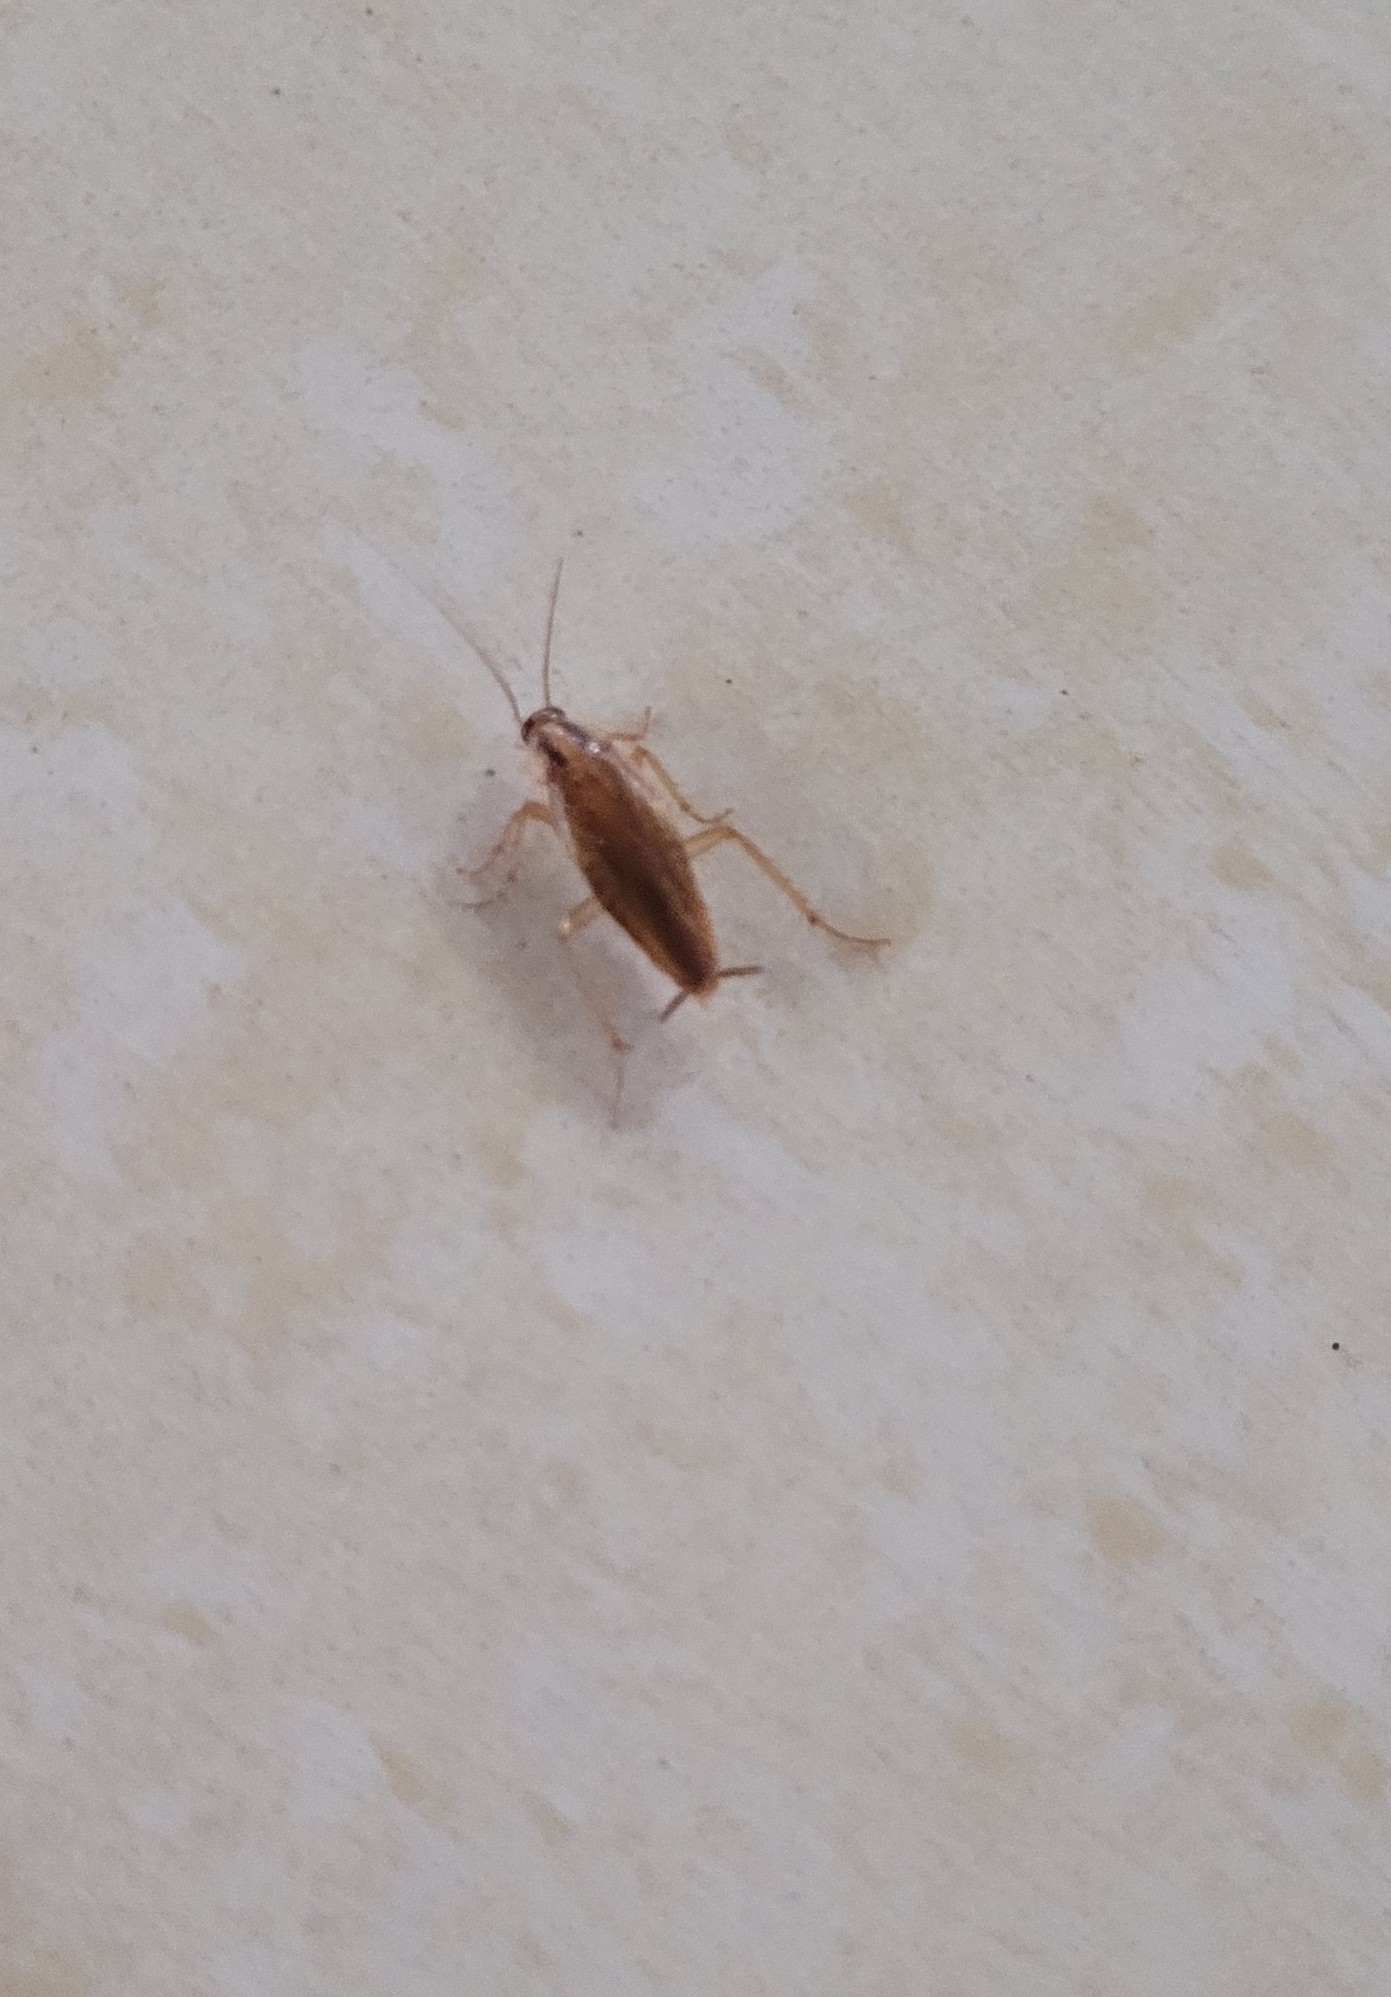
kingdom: Animalia
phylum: Arthropoda
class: Insecta
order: Blattodea
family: Ectobiidae
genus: Blattella
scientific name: Blattella germanica
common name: German cockroach
